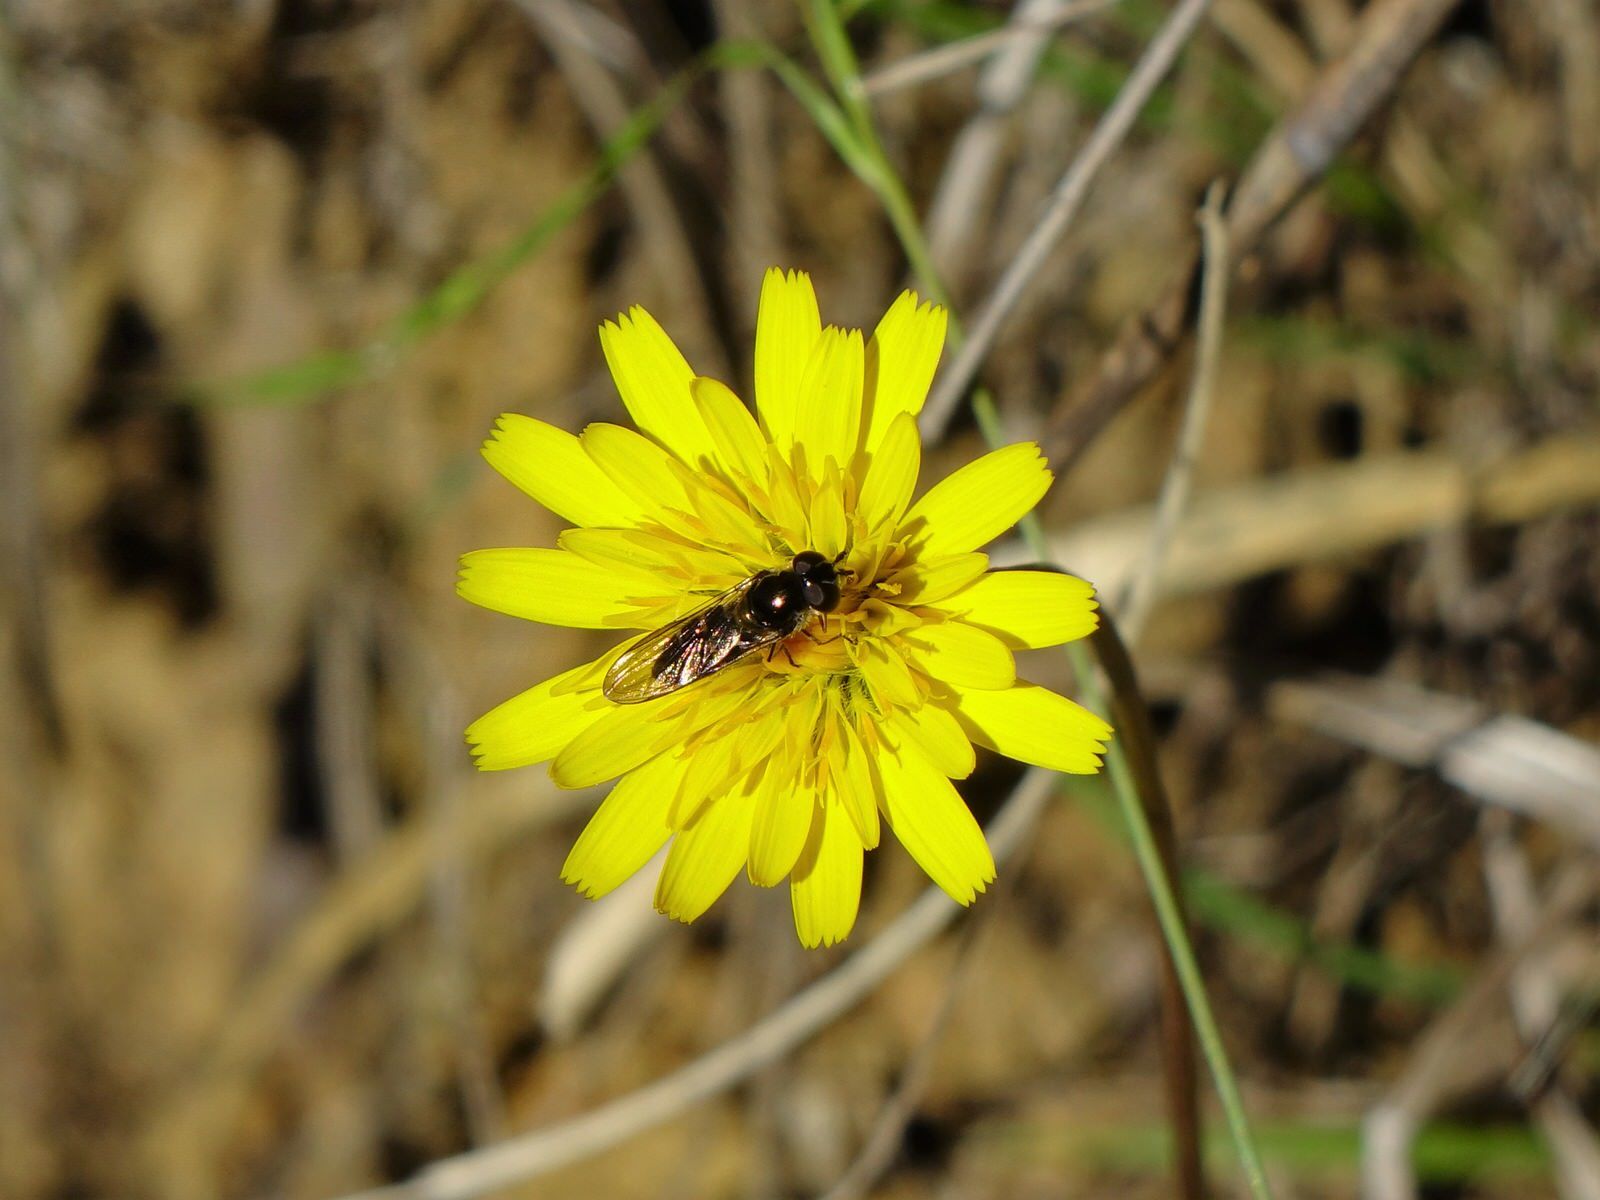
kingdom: Animalia
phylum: Arthropoda
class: Insecta
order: Diptera
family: Syrphidae
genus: Melangyna
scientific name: Melangyna novaezelandiae
